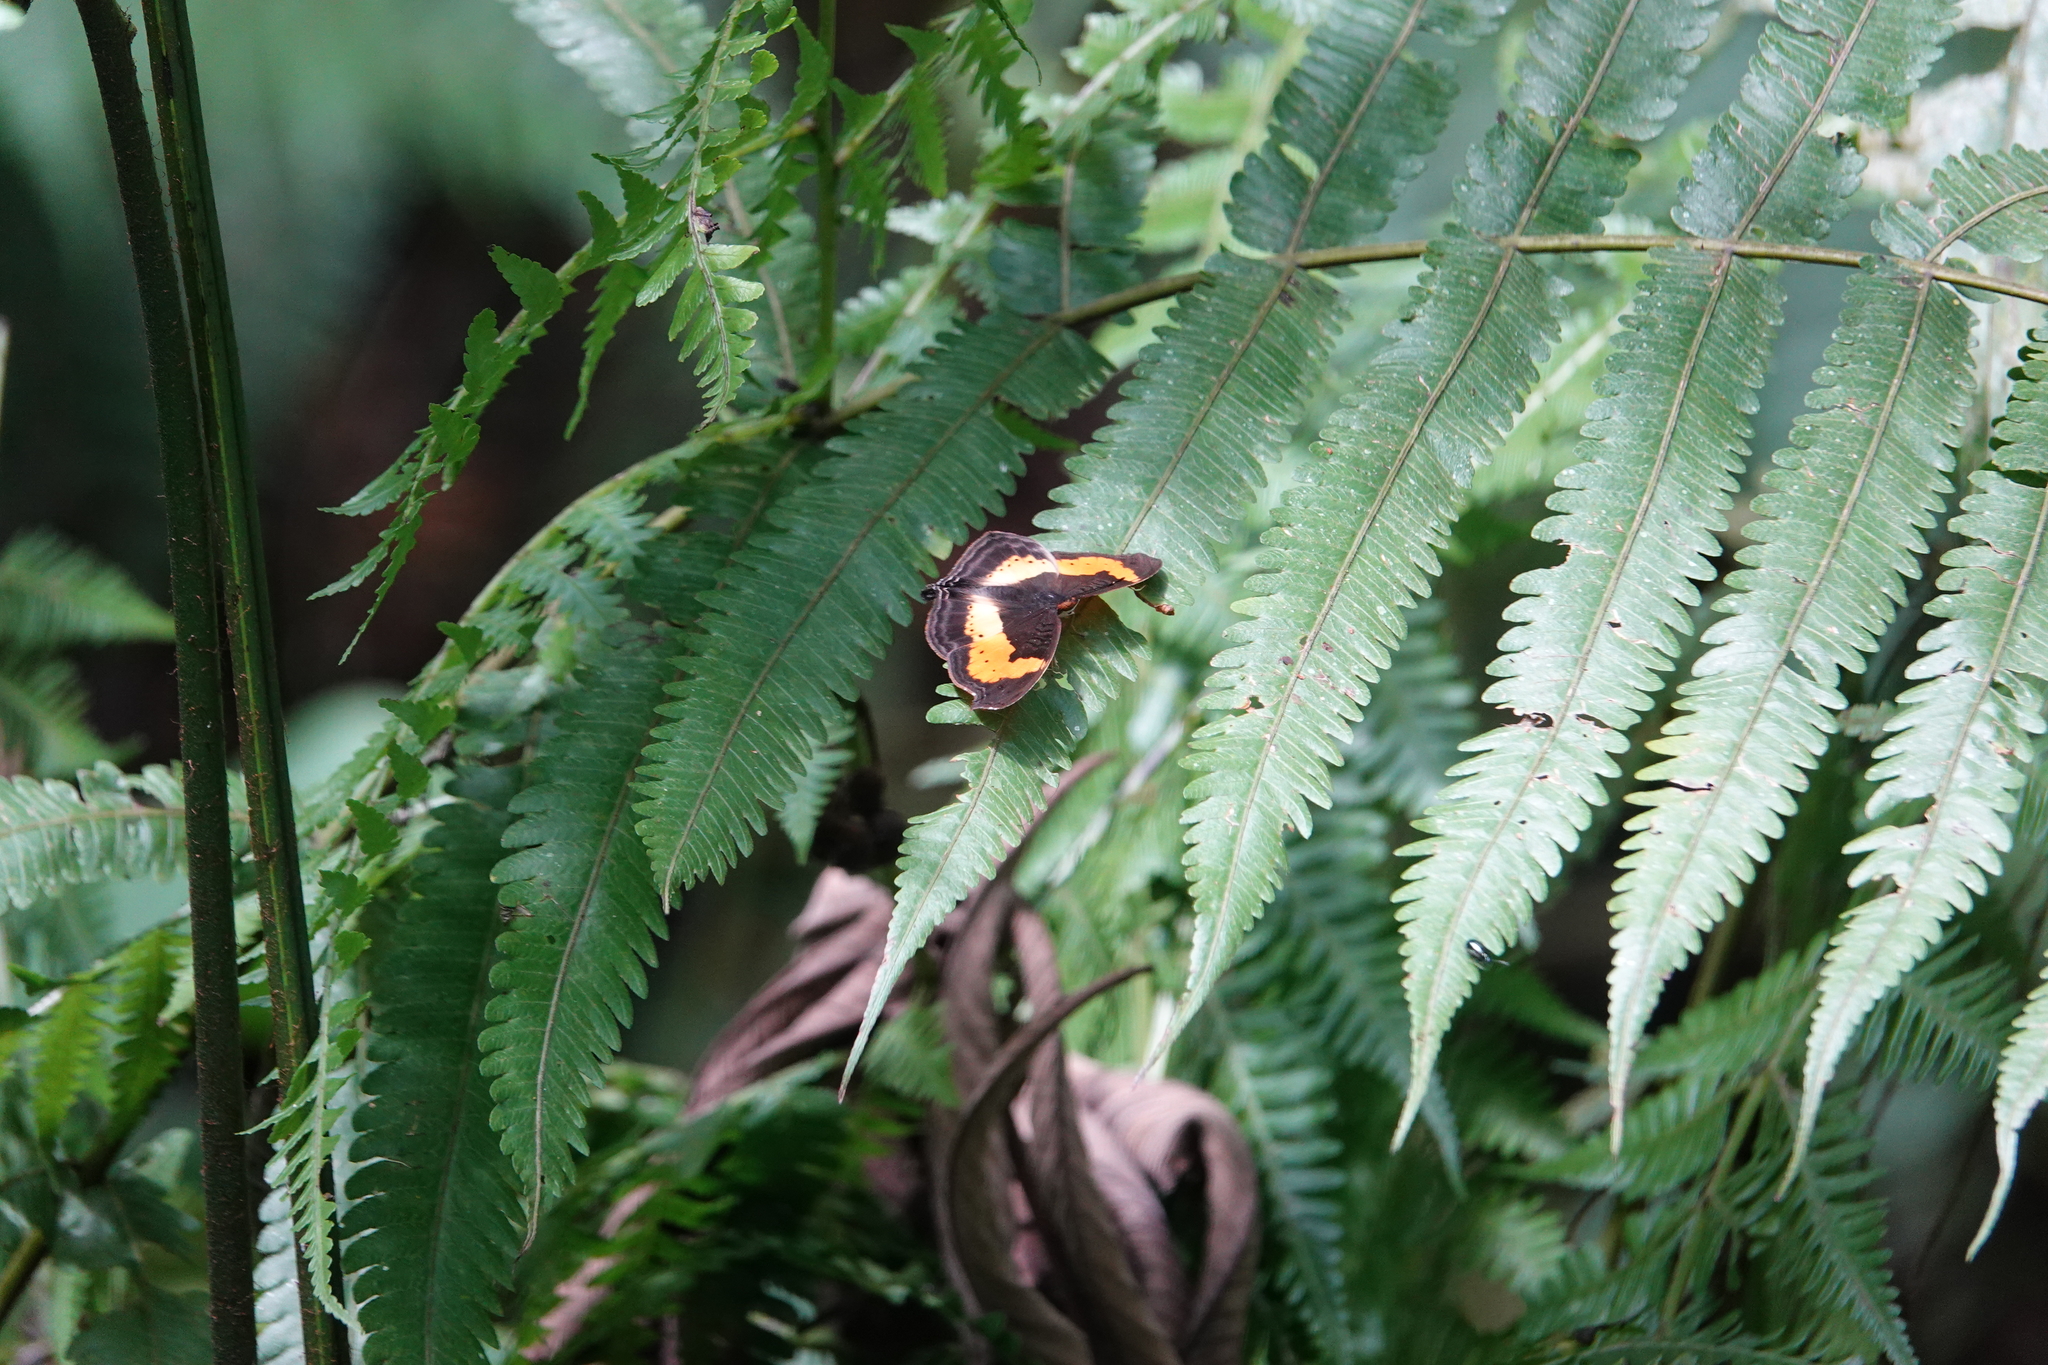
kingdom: Animalia
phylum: Arthropoda
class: Insecta
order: Lepidoptera
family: Nymphalidae
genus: Junonia
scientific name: Junonia tugela
